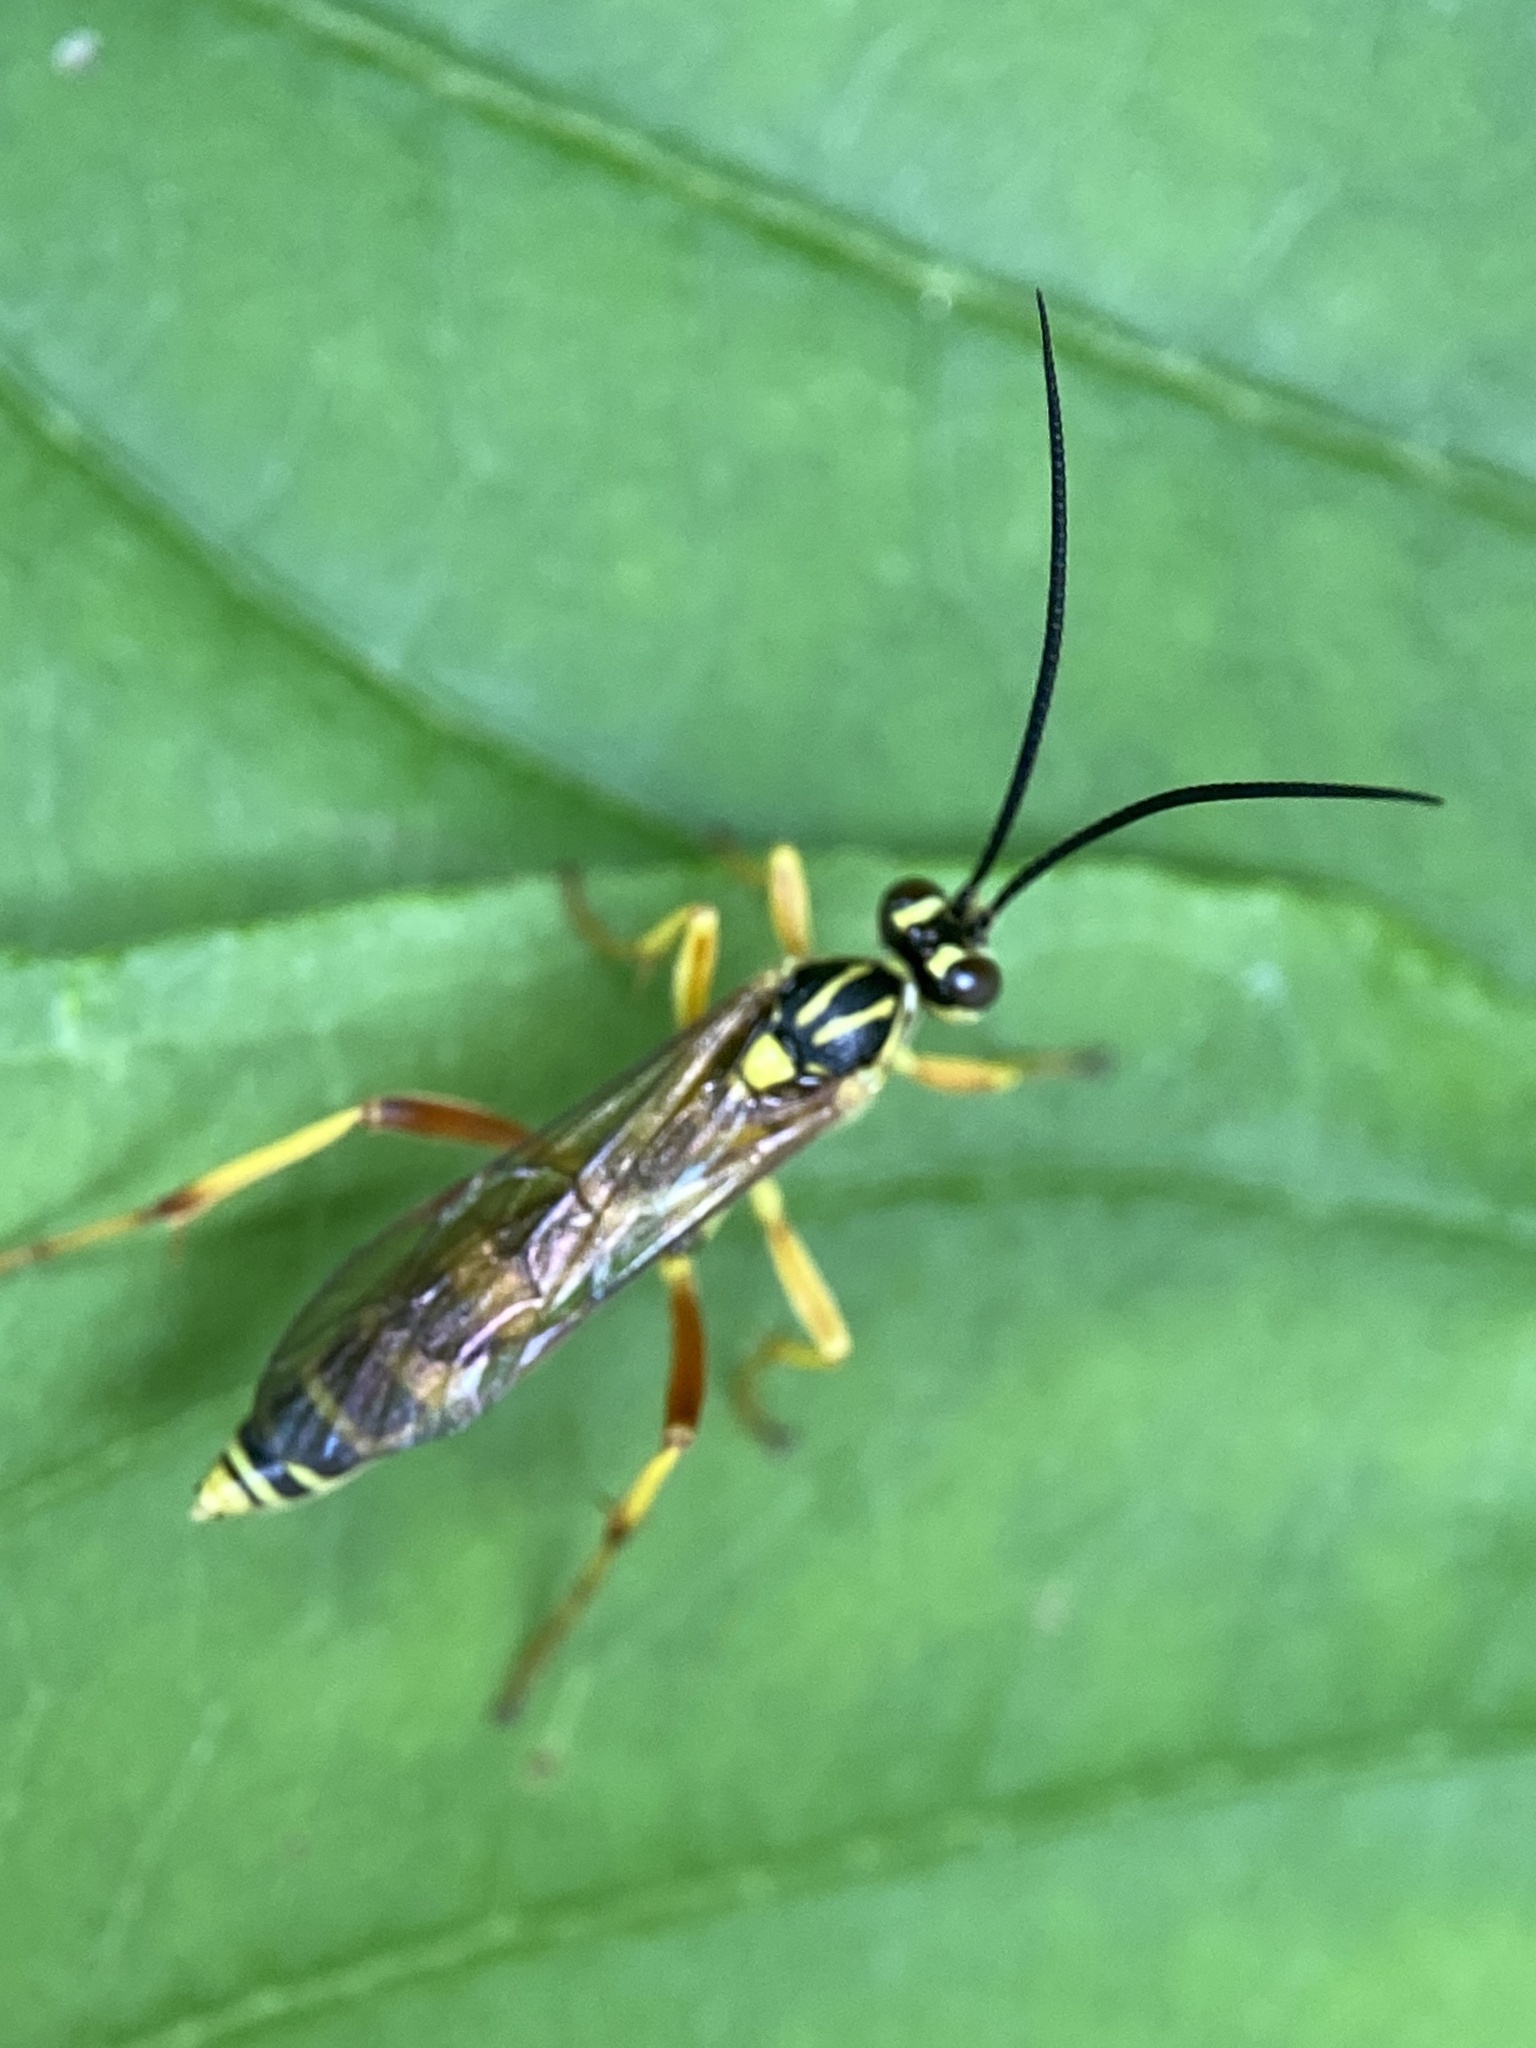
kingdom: Animalia
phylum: Arthropoda
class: Insecta
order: Hymenoptera
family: Ichneumonidae
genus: Setanta
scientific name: Setanta compta
